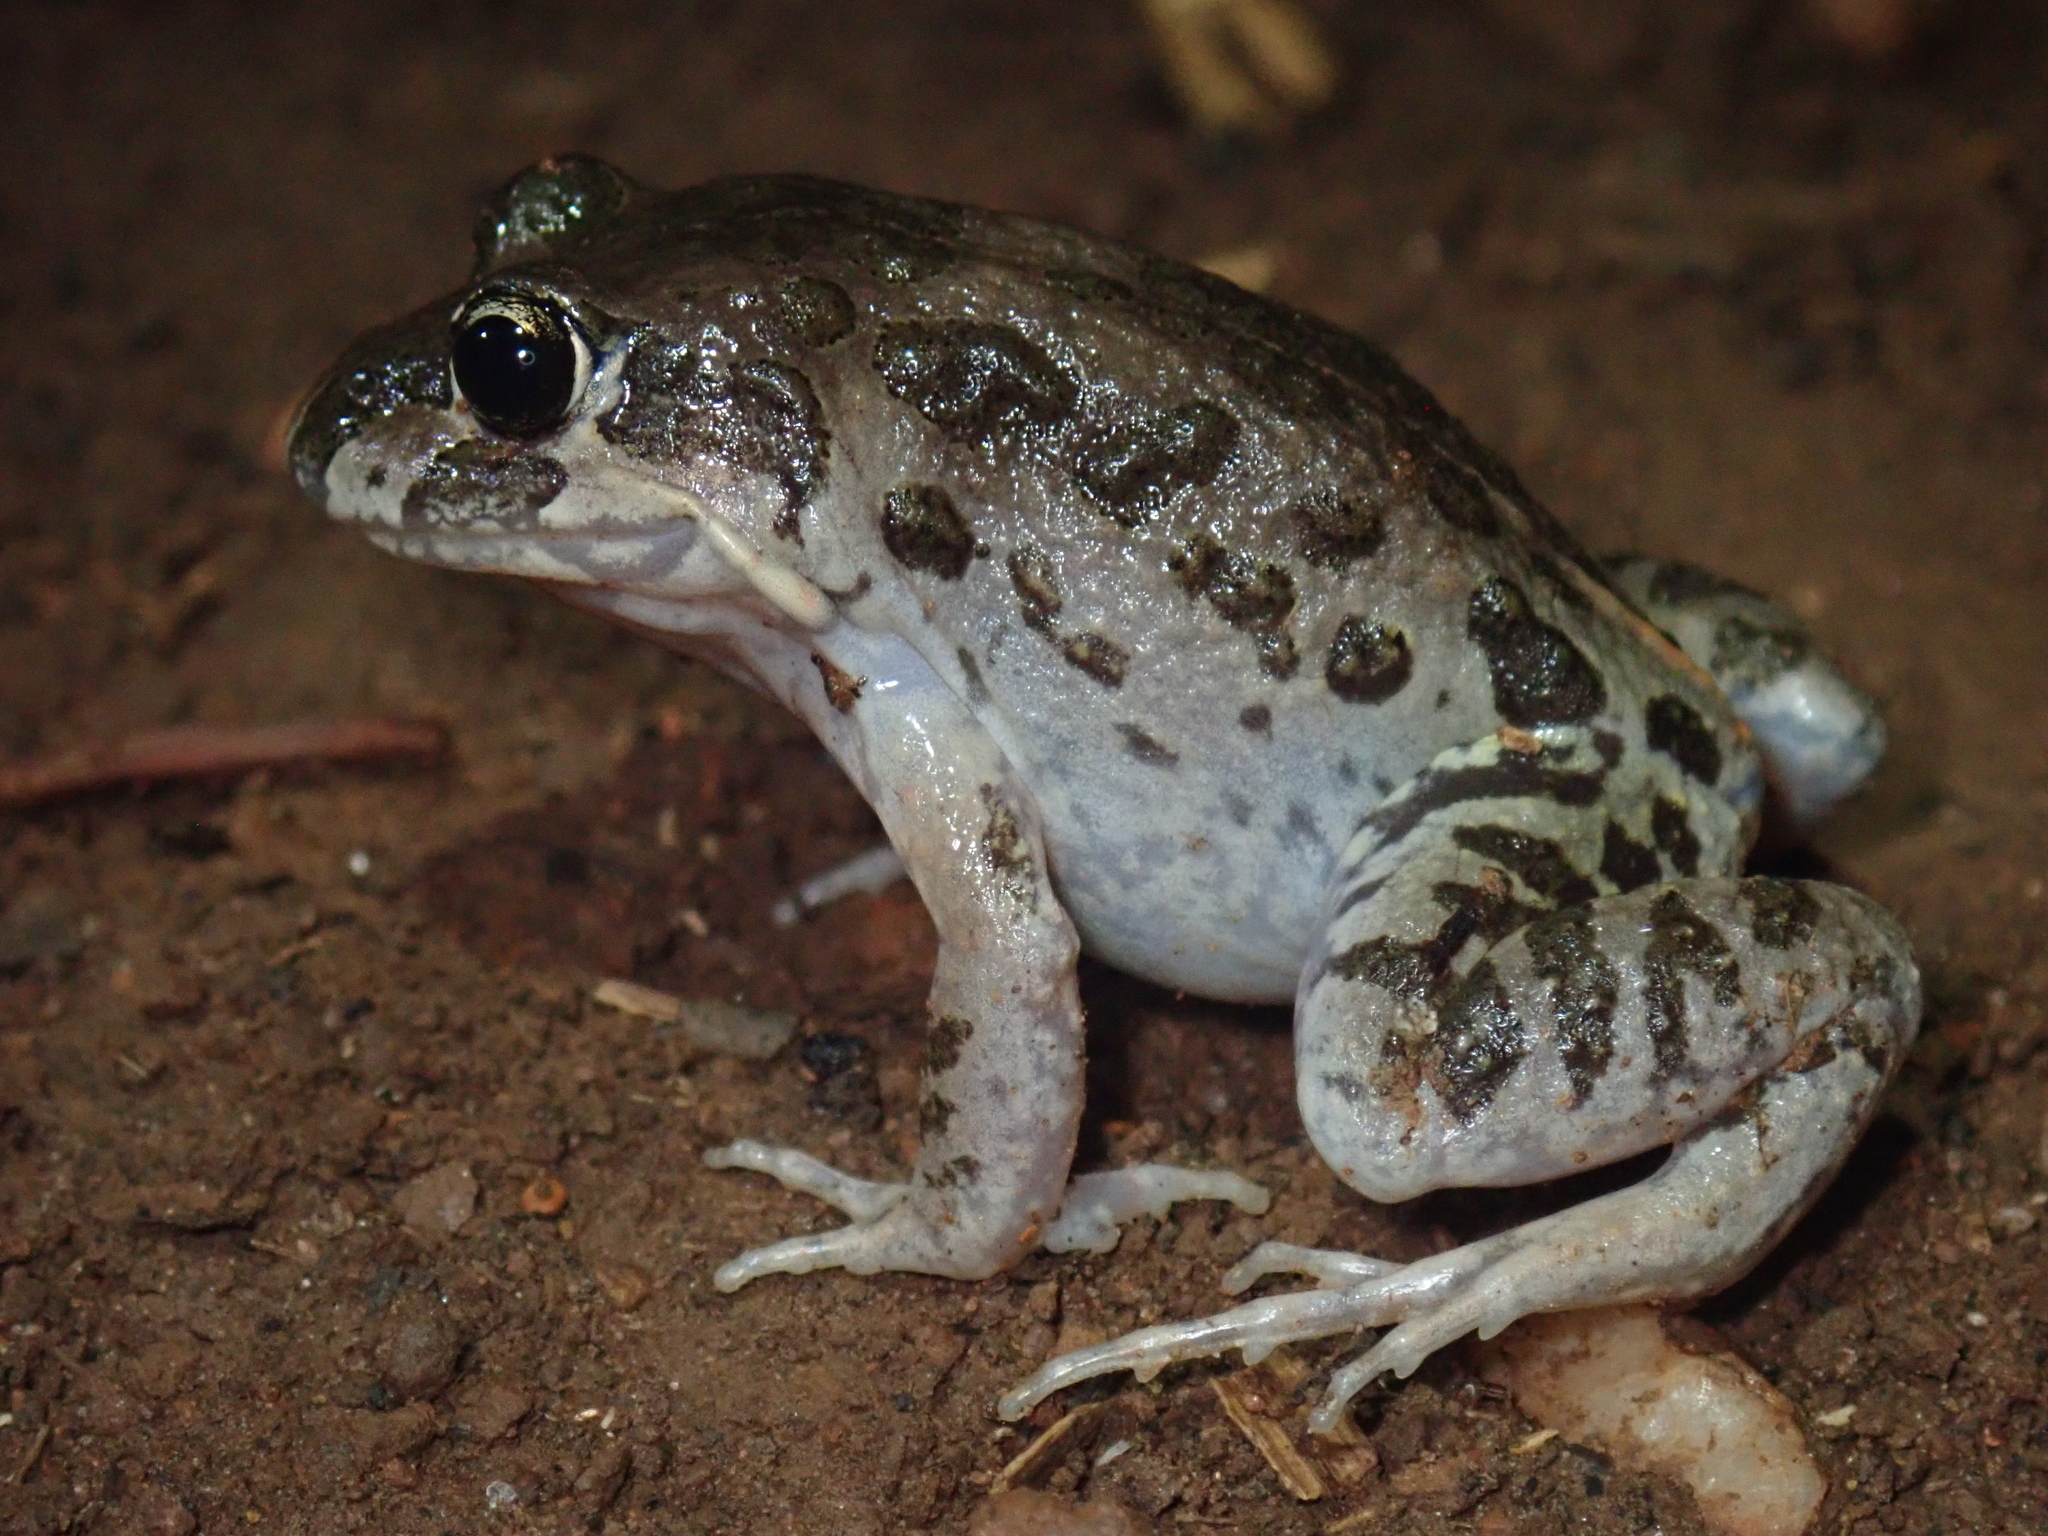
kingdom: Animalia
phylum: Chordata
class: Amphibia
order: Anura
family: Limnodynastidae
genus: Limnodynastes
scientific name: Limnodynastes convexiusculus
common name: Marbled frog
